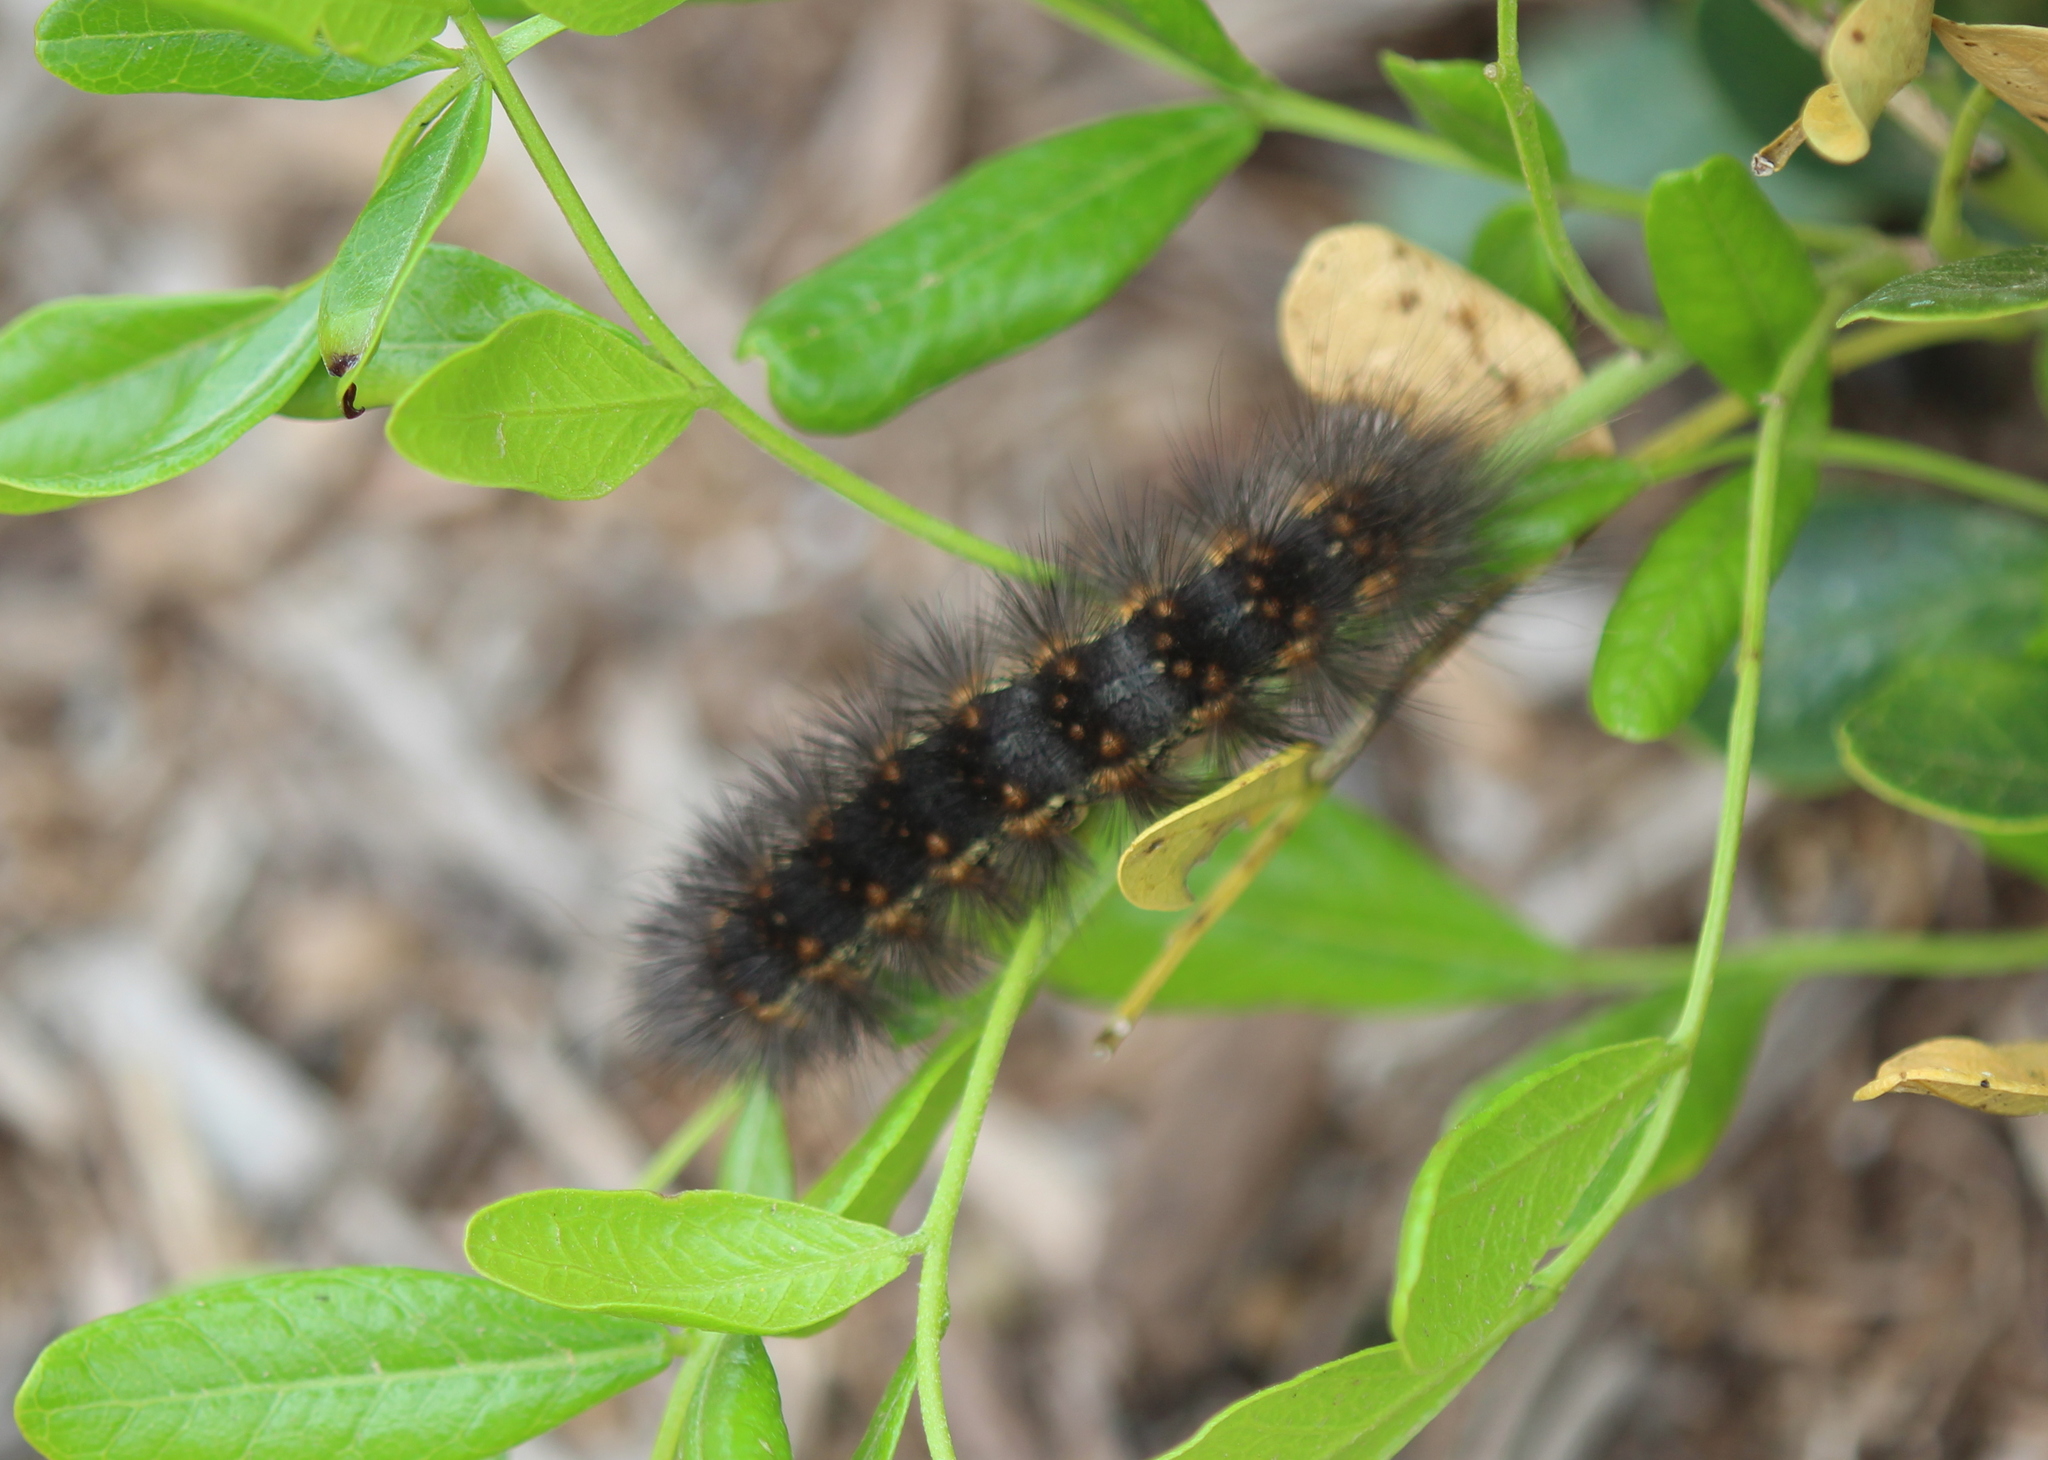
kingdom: Animalia
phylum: Arthropoda
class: Insecta
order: Lepidoptera
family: Erebidae
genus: Estigmene
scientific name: Estigmene acrea
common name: Salt marsh moth
